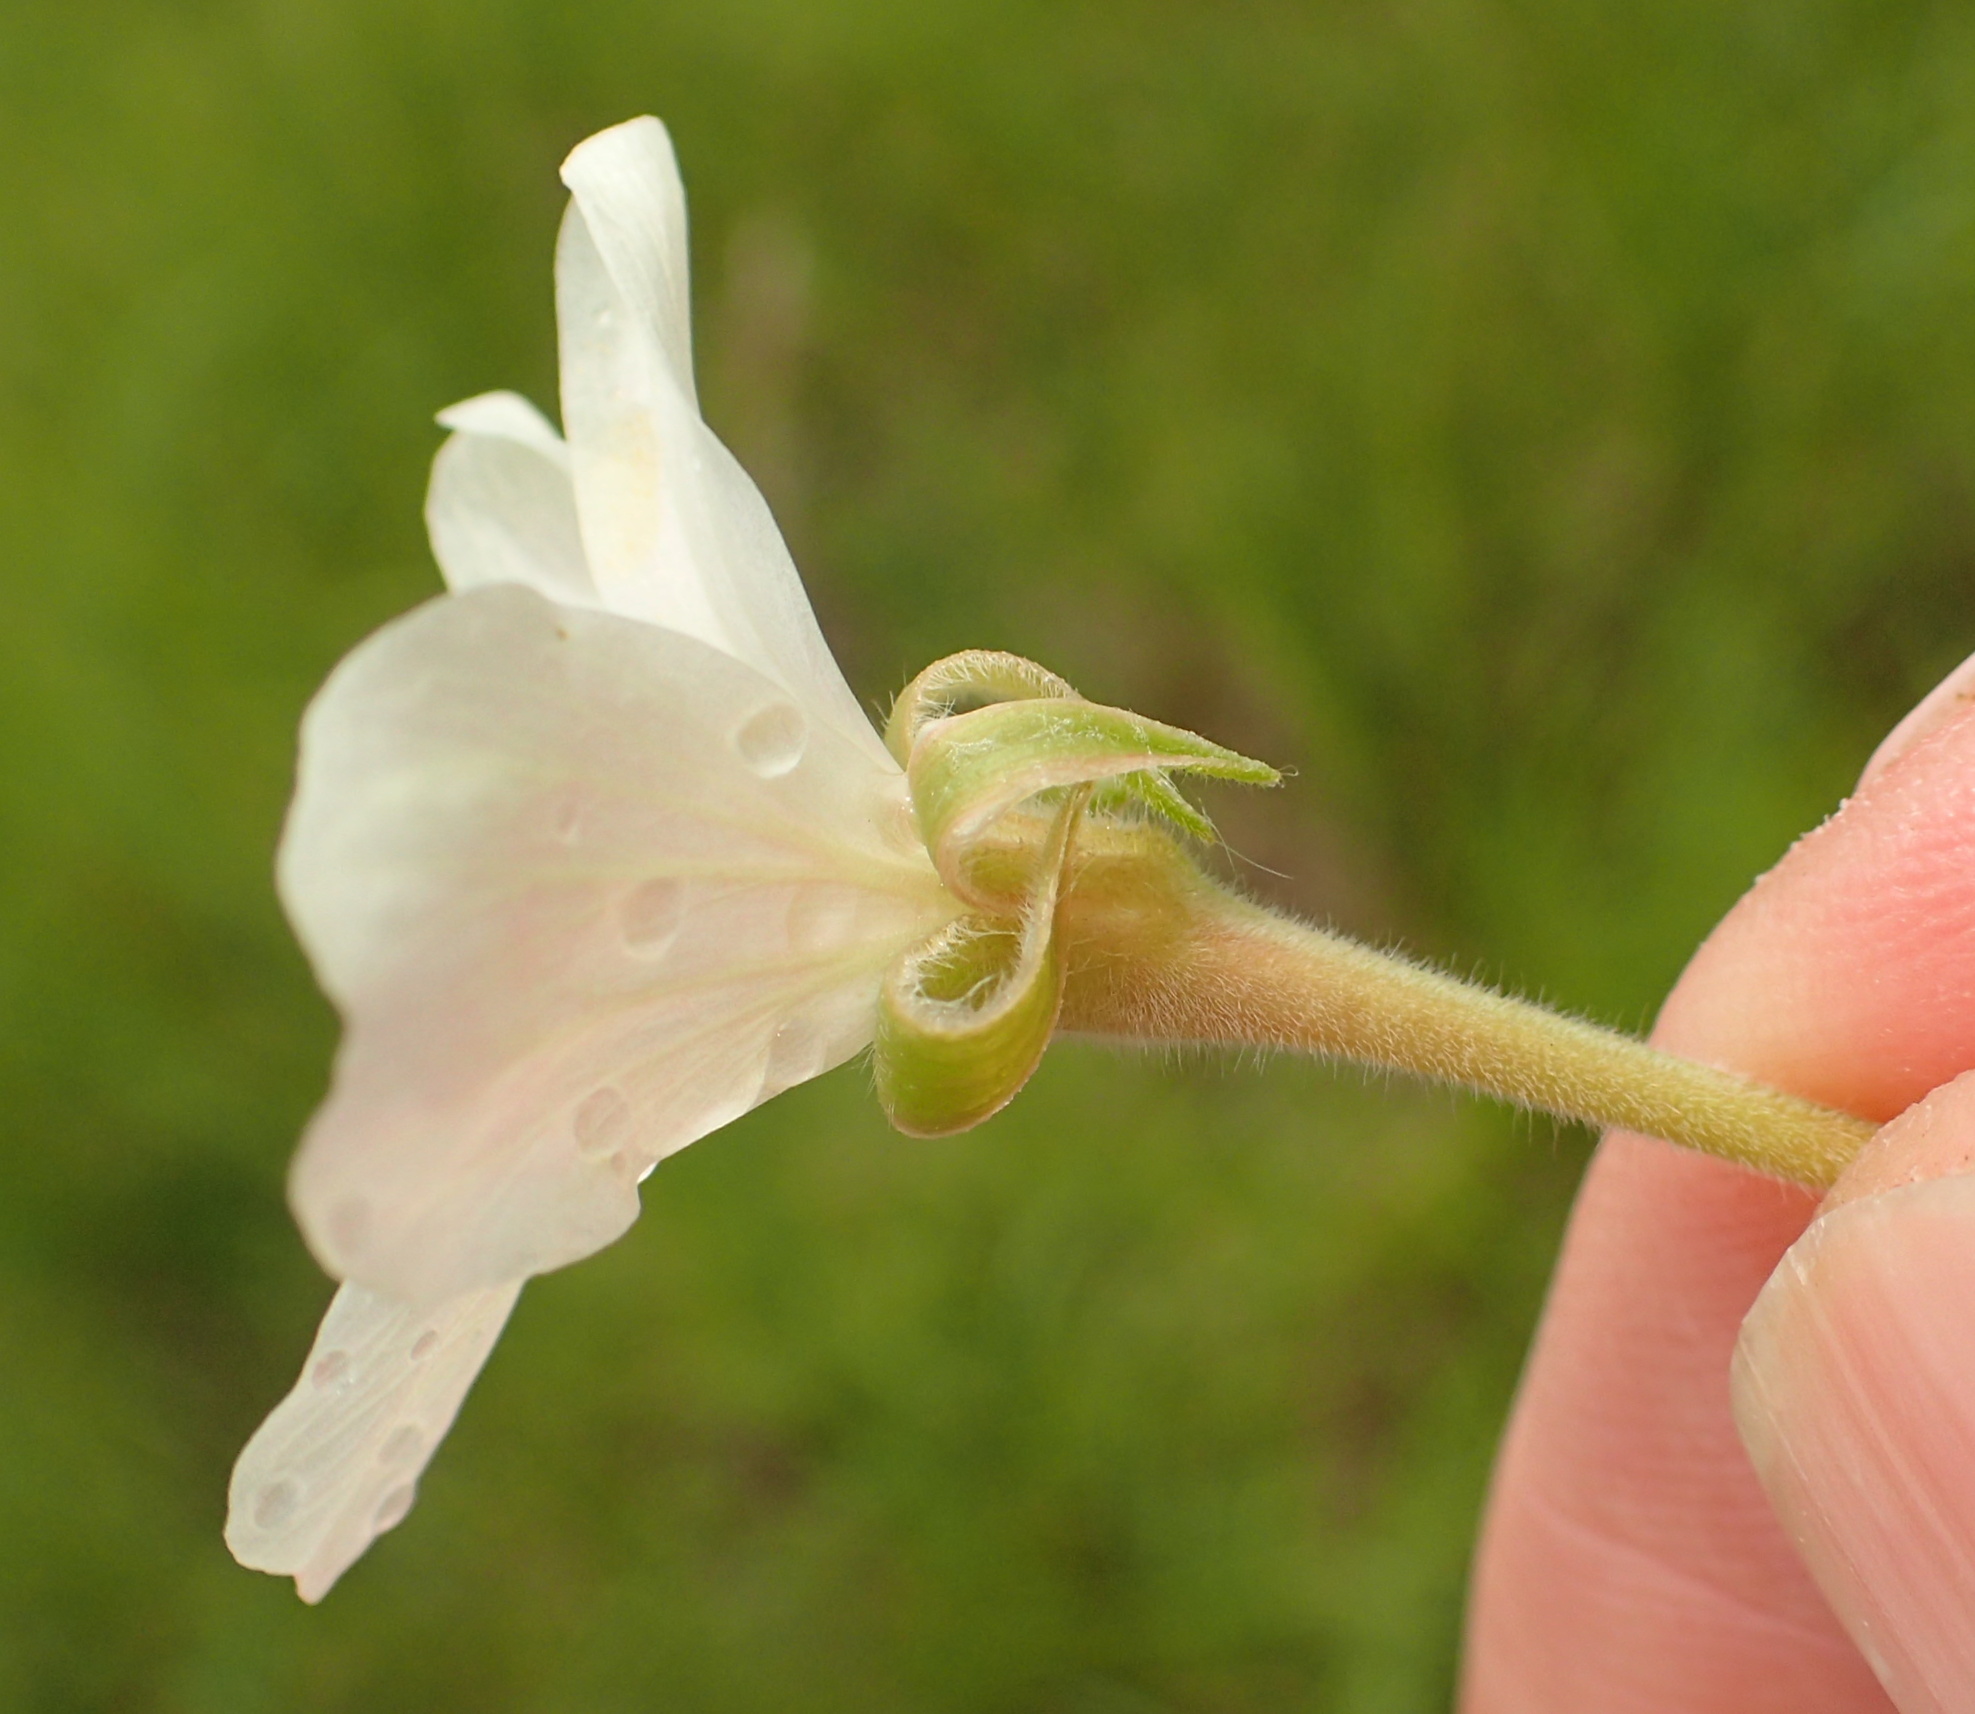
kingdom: Plantae
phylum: Tracheophyta
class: Magnoliopsida
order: Geraniales
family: Geraniaceae
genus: Pelargonium
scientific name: Pelargonium luridum
